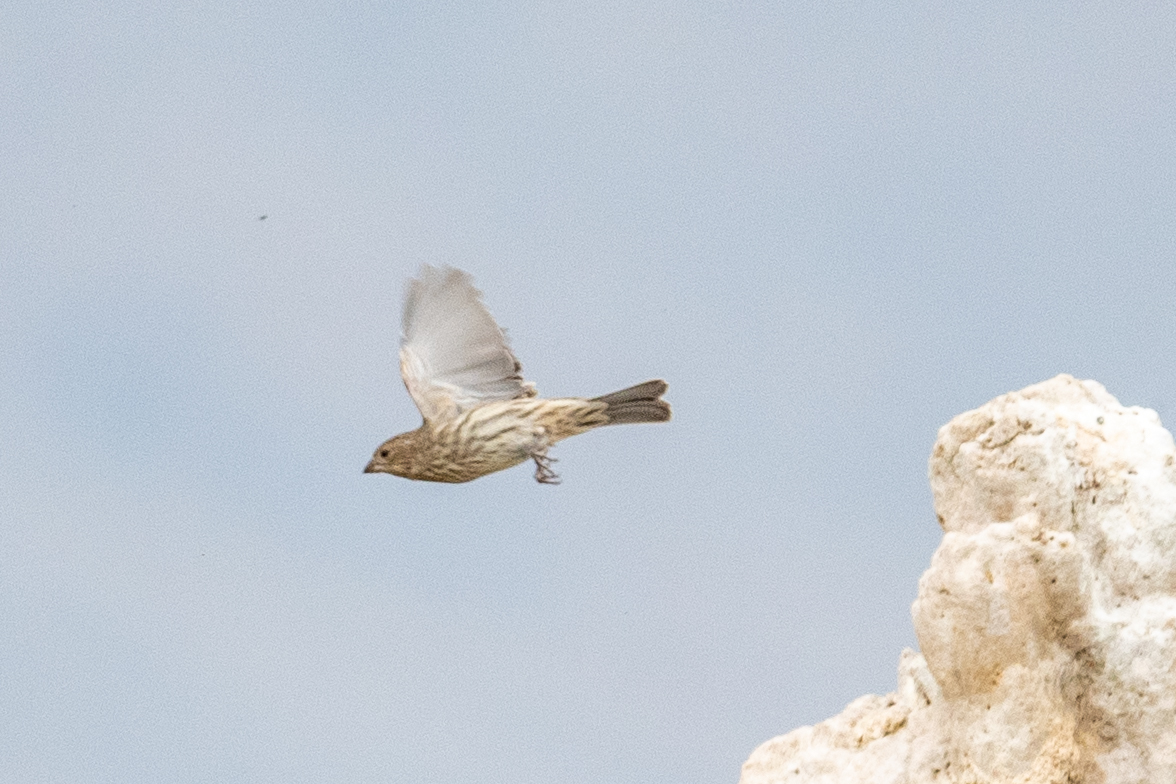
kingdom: Animalia
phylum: Chordata
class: Aves
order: Passeriformes
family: Fringillidae
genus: Haemorhous
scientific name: Haemorhous mexicanus
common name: House finch
